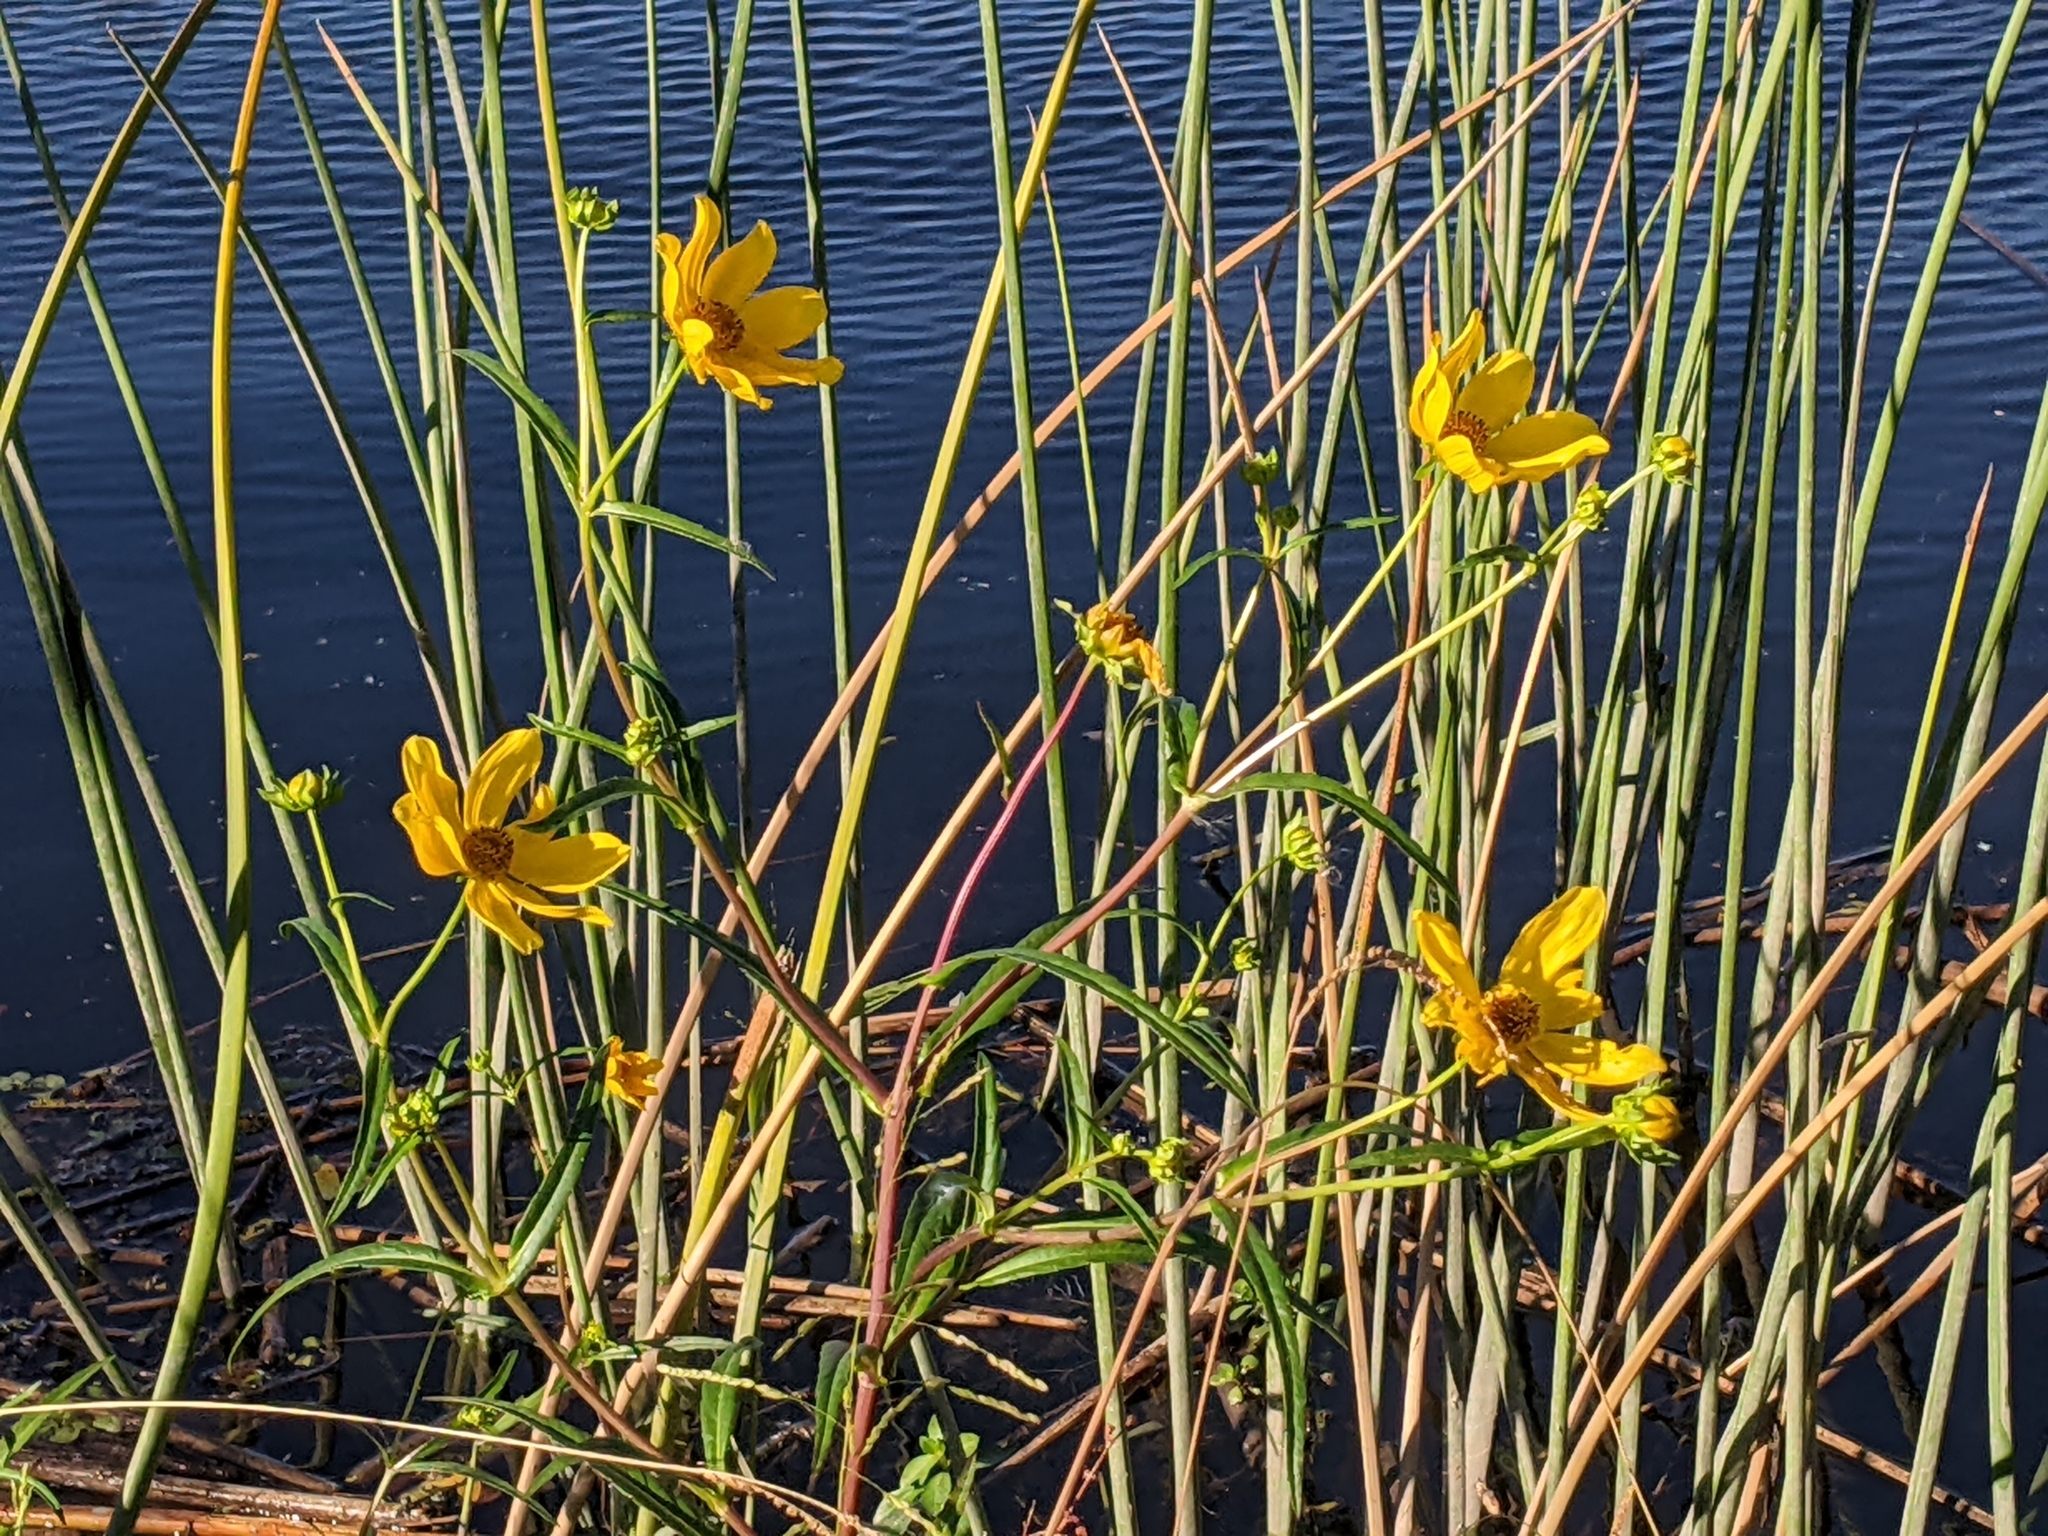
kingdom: Plantae
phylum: Tracheophyta
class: Magnoliopsida
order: Asterales
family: Asteraceae
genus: Bidens
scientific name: Bidens laevis
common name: Larger bur-marigold
